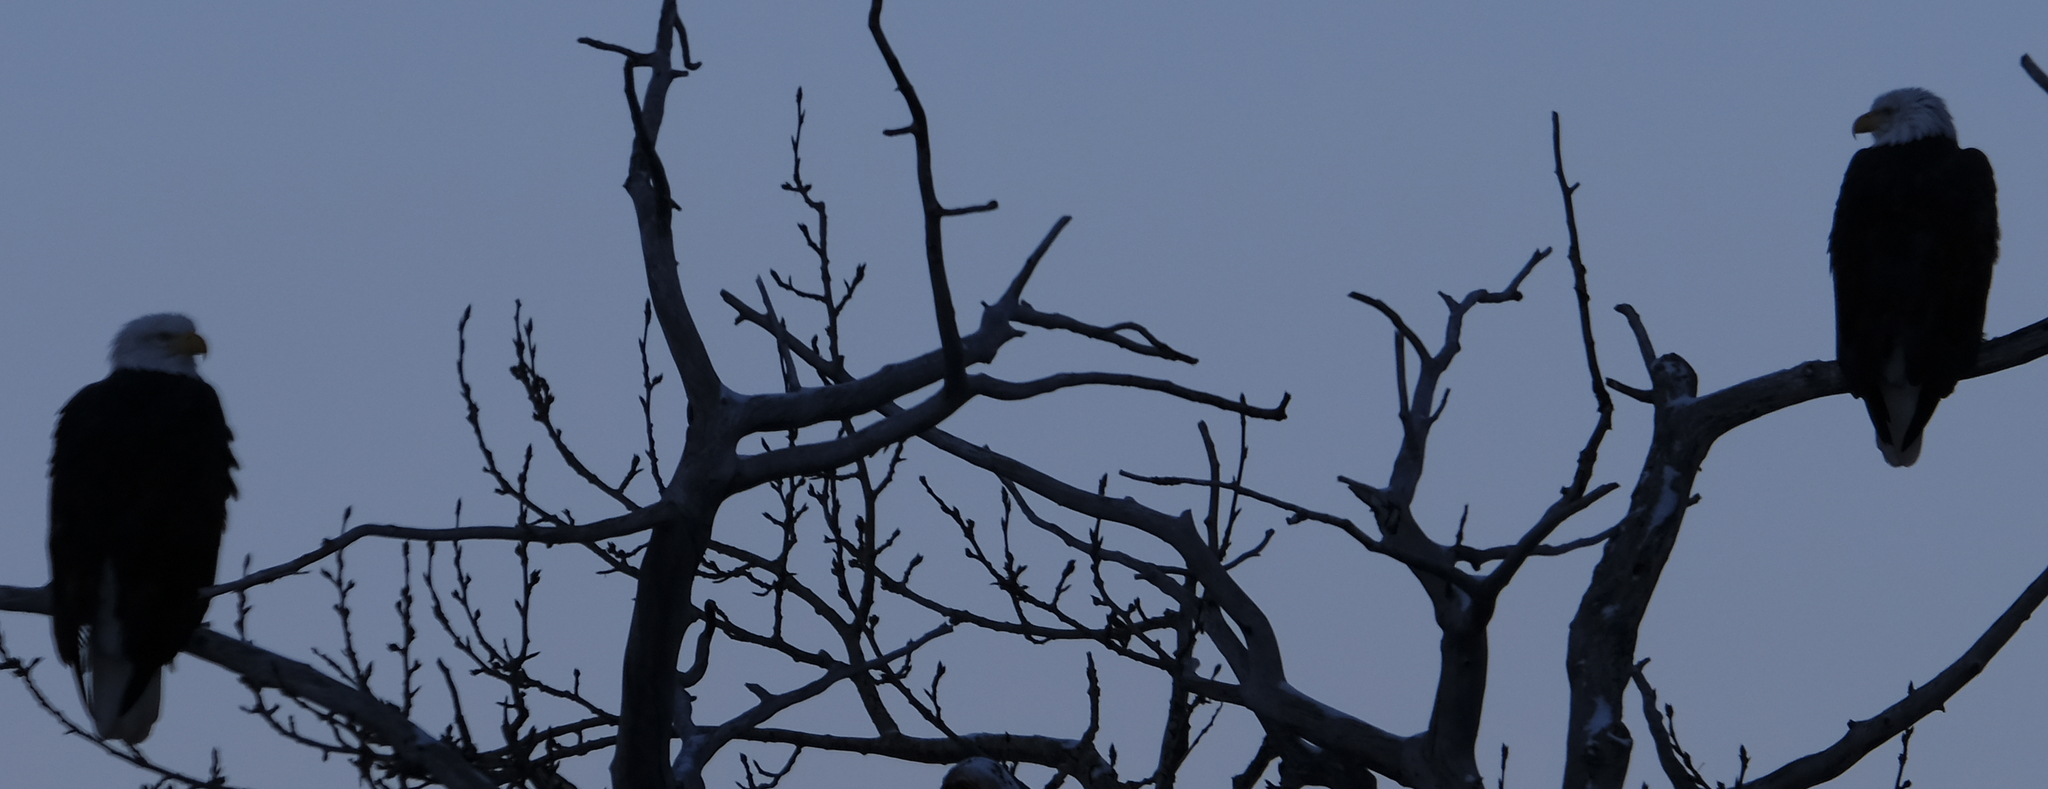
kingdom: Animalia
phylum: Chordata
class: Aves
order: Accipitriformes
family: Accipitridae
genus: Haliaeetus
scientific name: Haliaeetus leucocephalus
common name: Bald eagle
